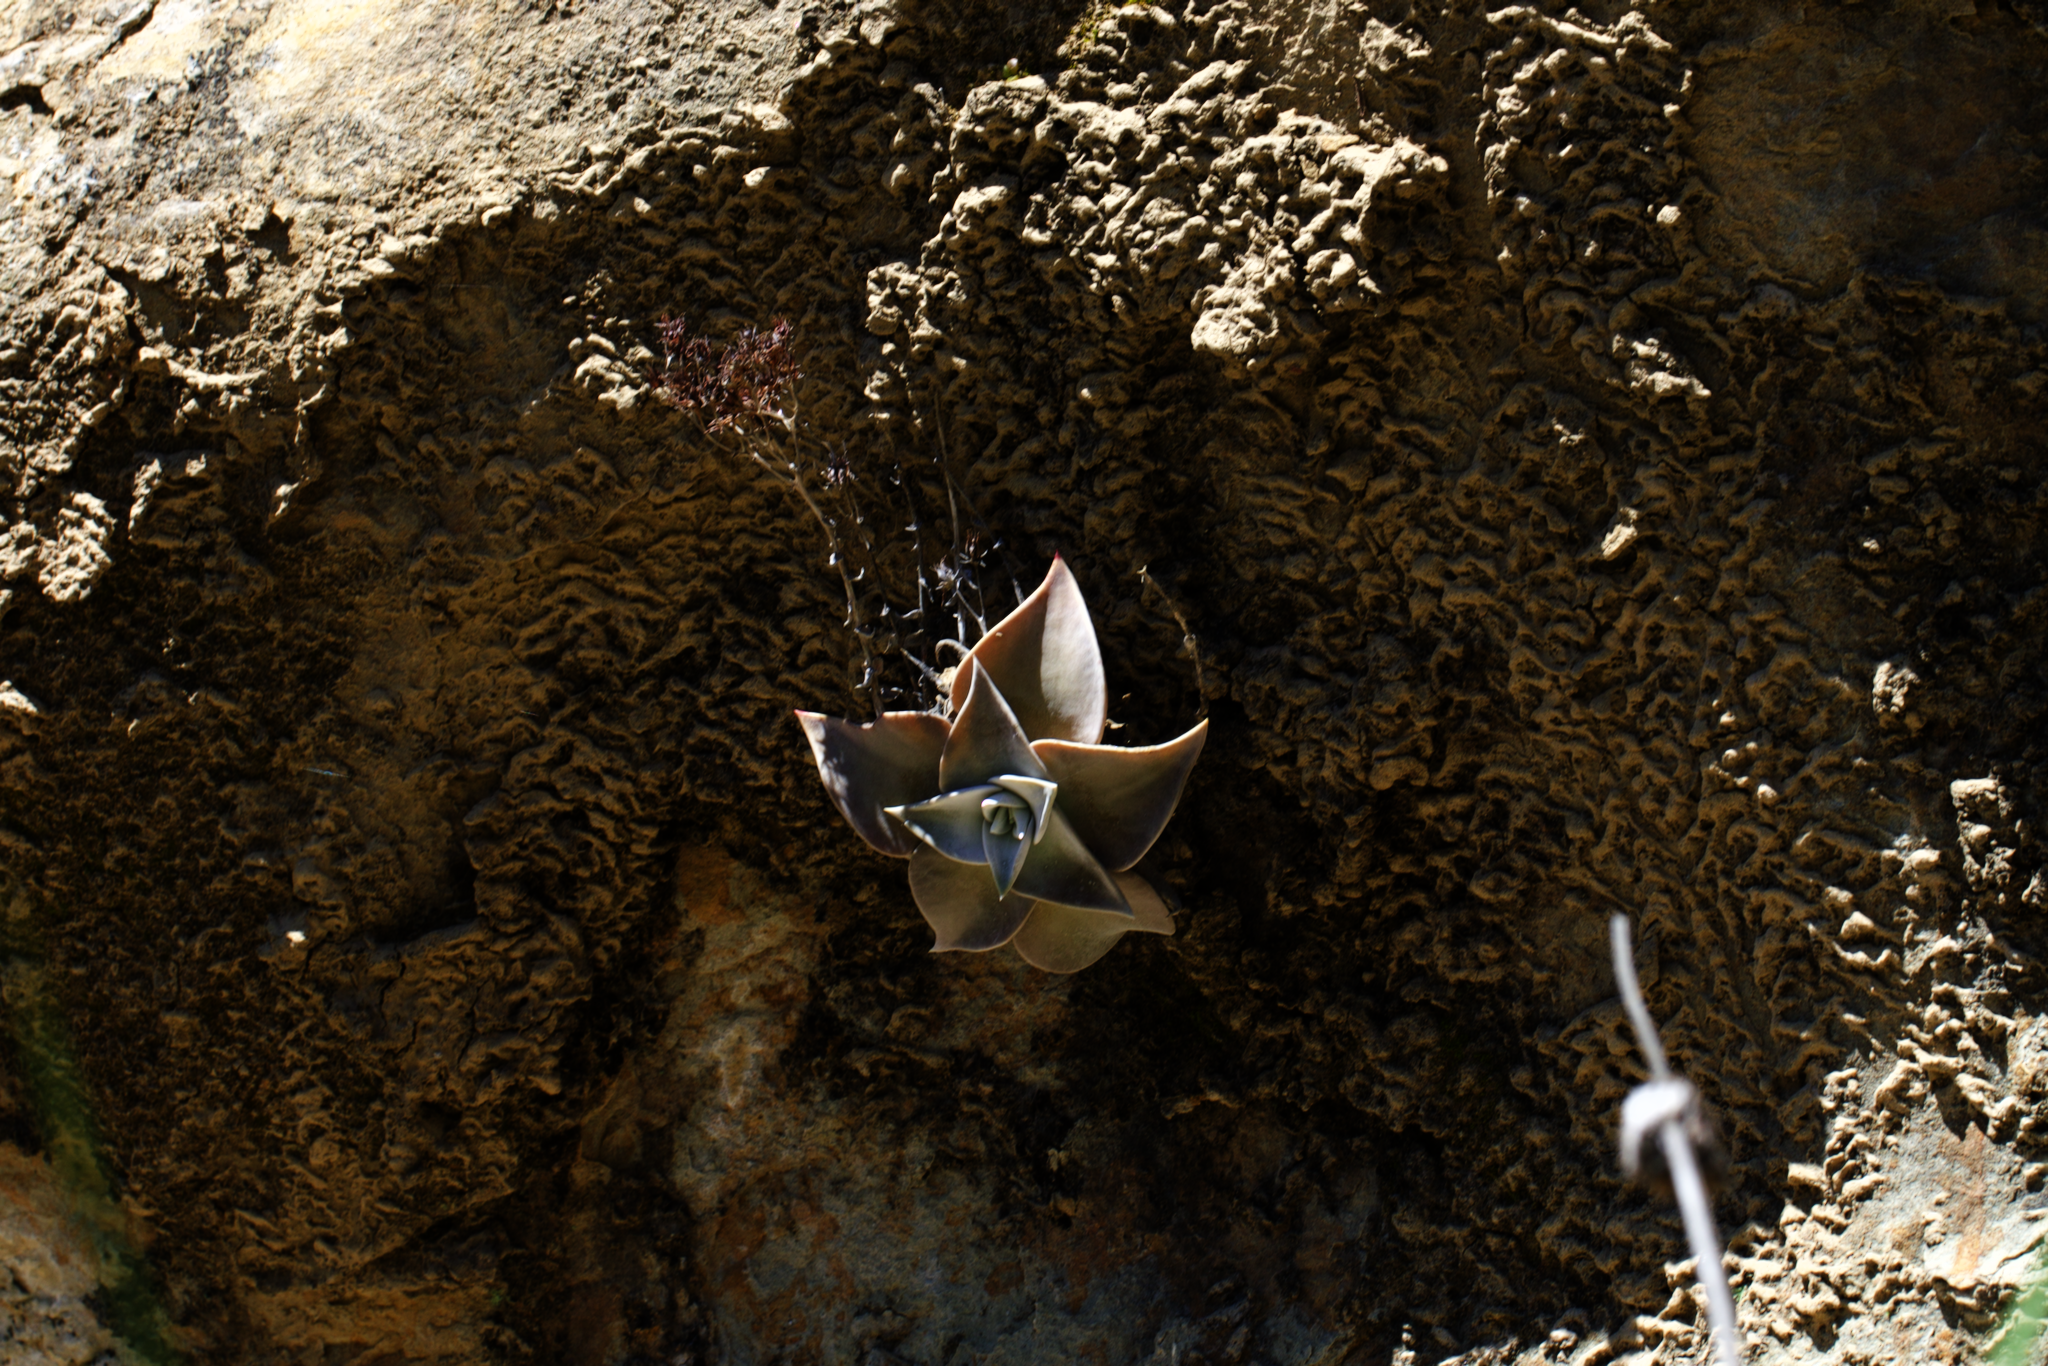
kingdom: Plantae
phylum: Tracheophyta
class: Magnoliopsida
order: Saxifragales
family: Crassulaceae
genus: Dudleya
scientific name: Dudleya cymosa
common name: Canyon dudleya
